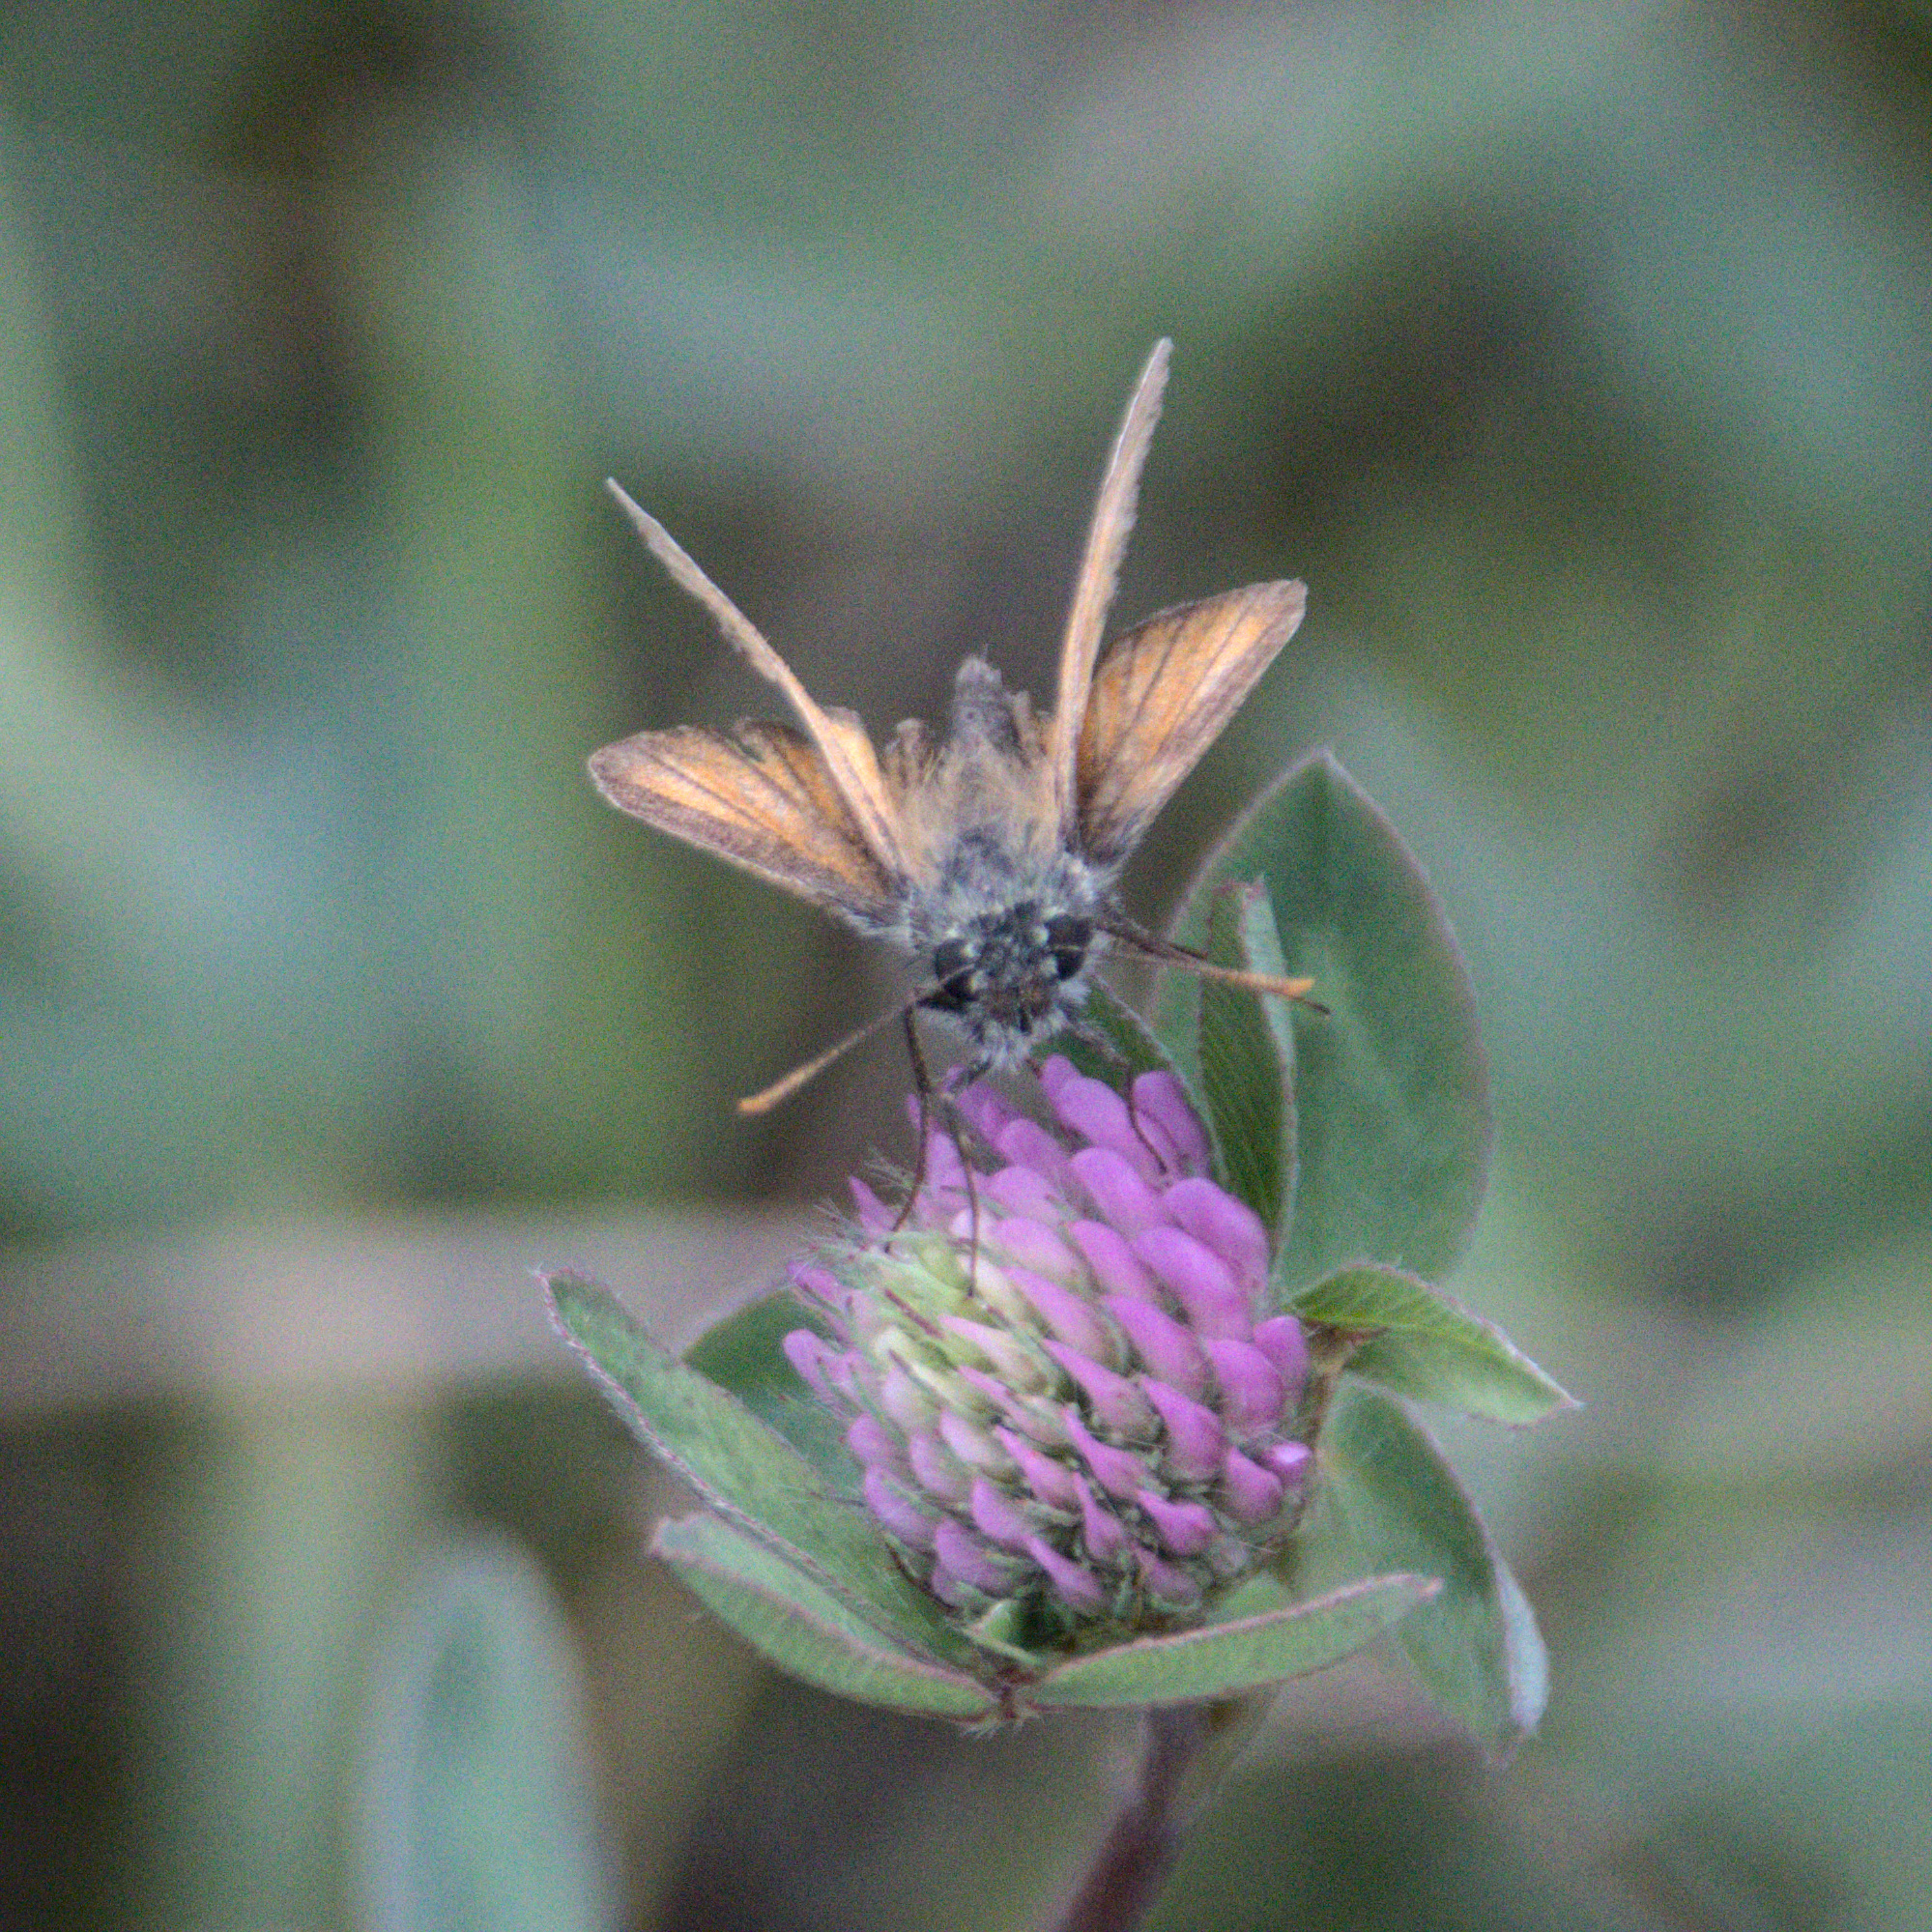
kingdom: Animalia
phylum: Arthropoda
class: Insecta
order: Lepidoptera
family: Hesperiidae
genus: Thymelicus
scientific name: Thymelicus sylvestris
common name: Small skipper
